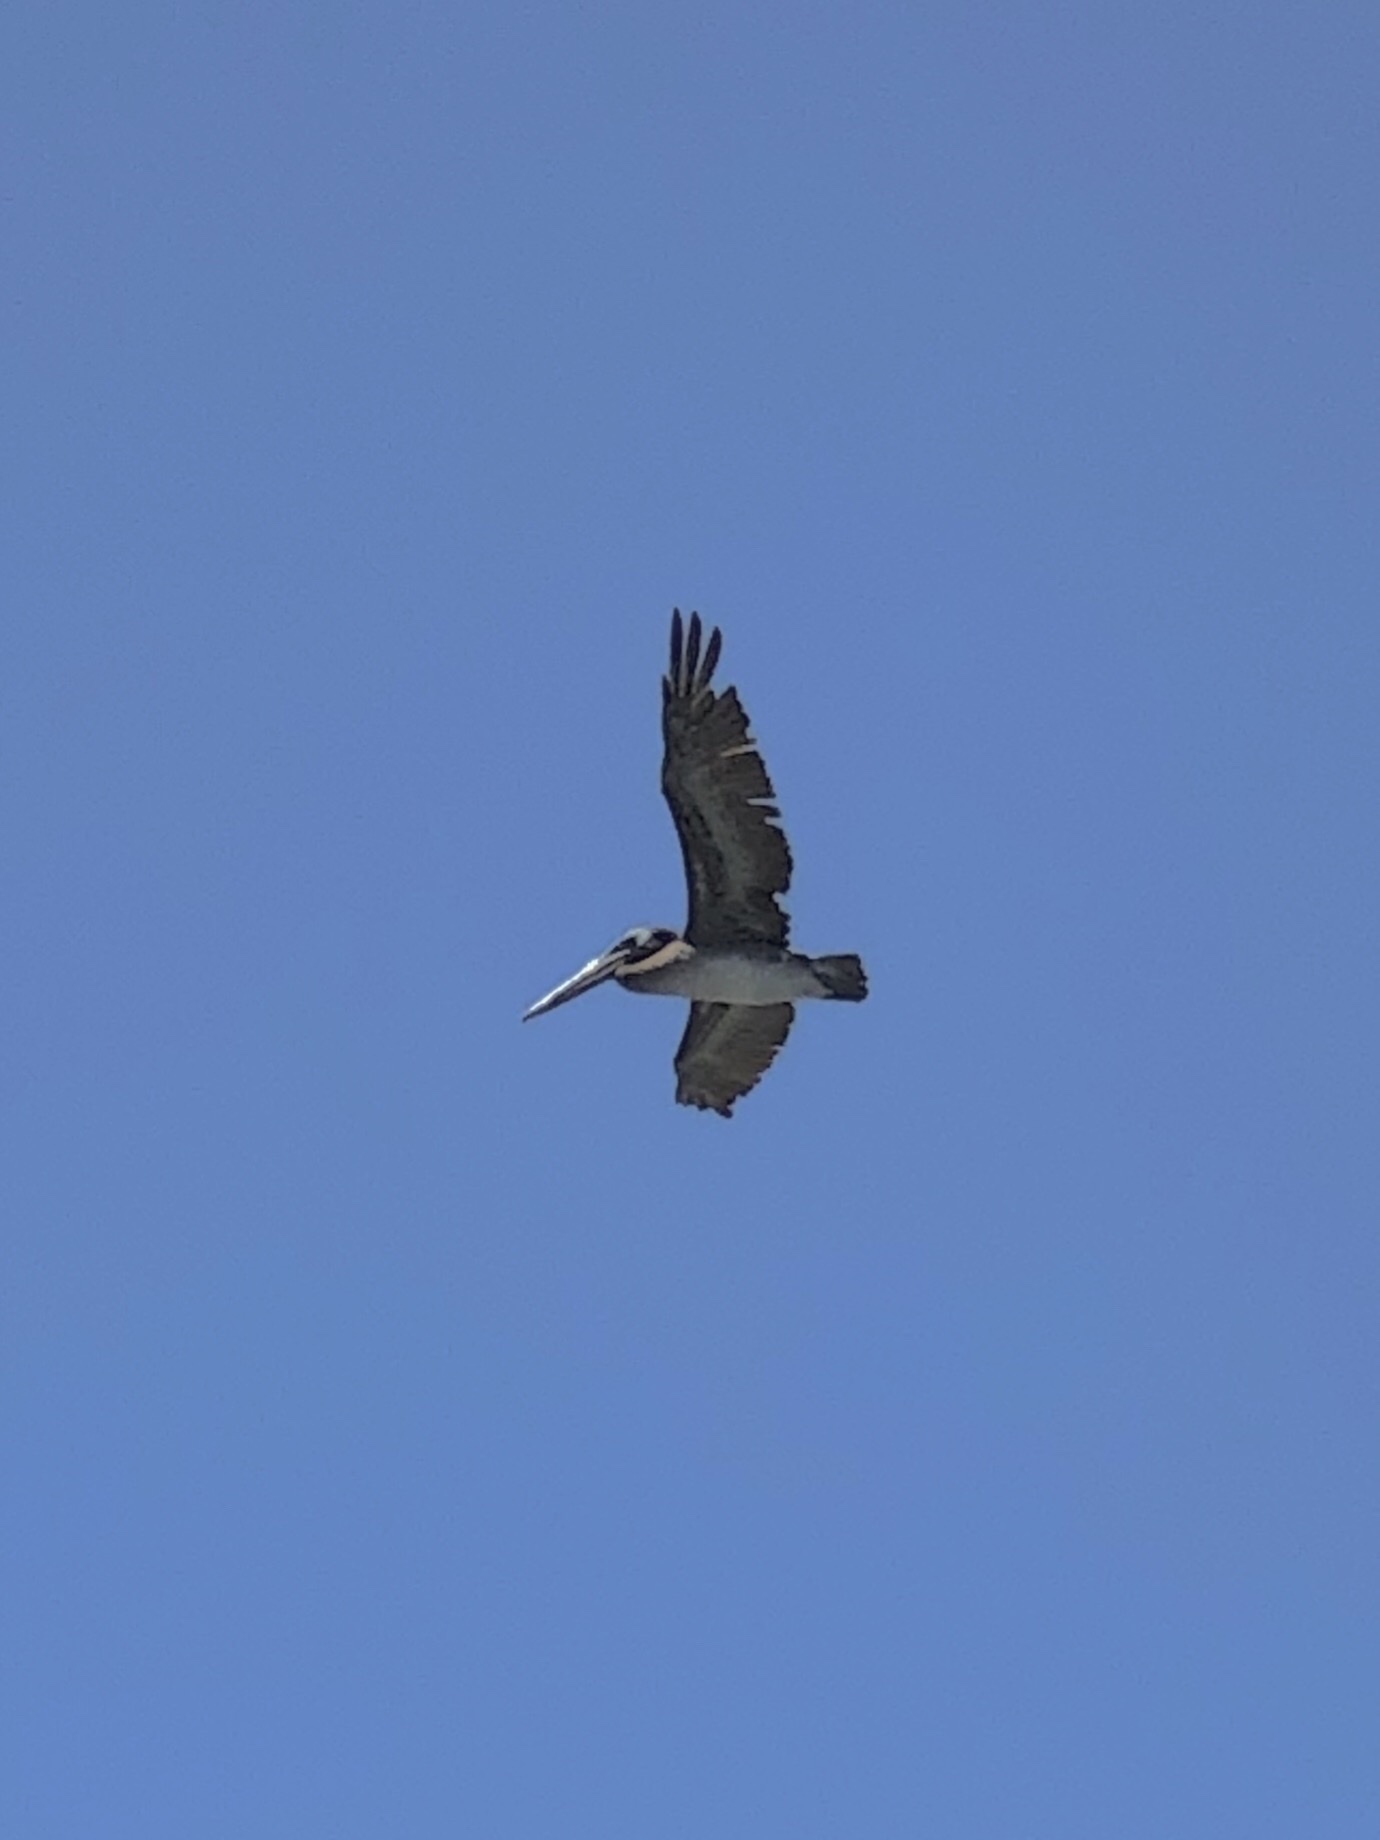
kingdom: Animalia
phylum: Chordata
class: Aves
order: Pelecaniformes
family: Pelecanidae
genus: Pelecanus
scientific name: Pelecanus occidentalis
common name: Brown pelican
